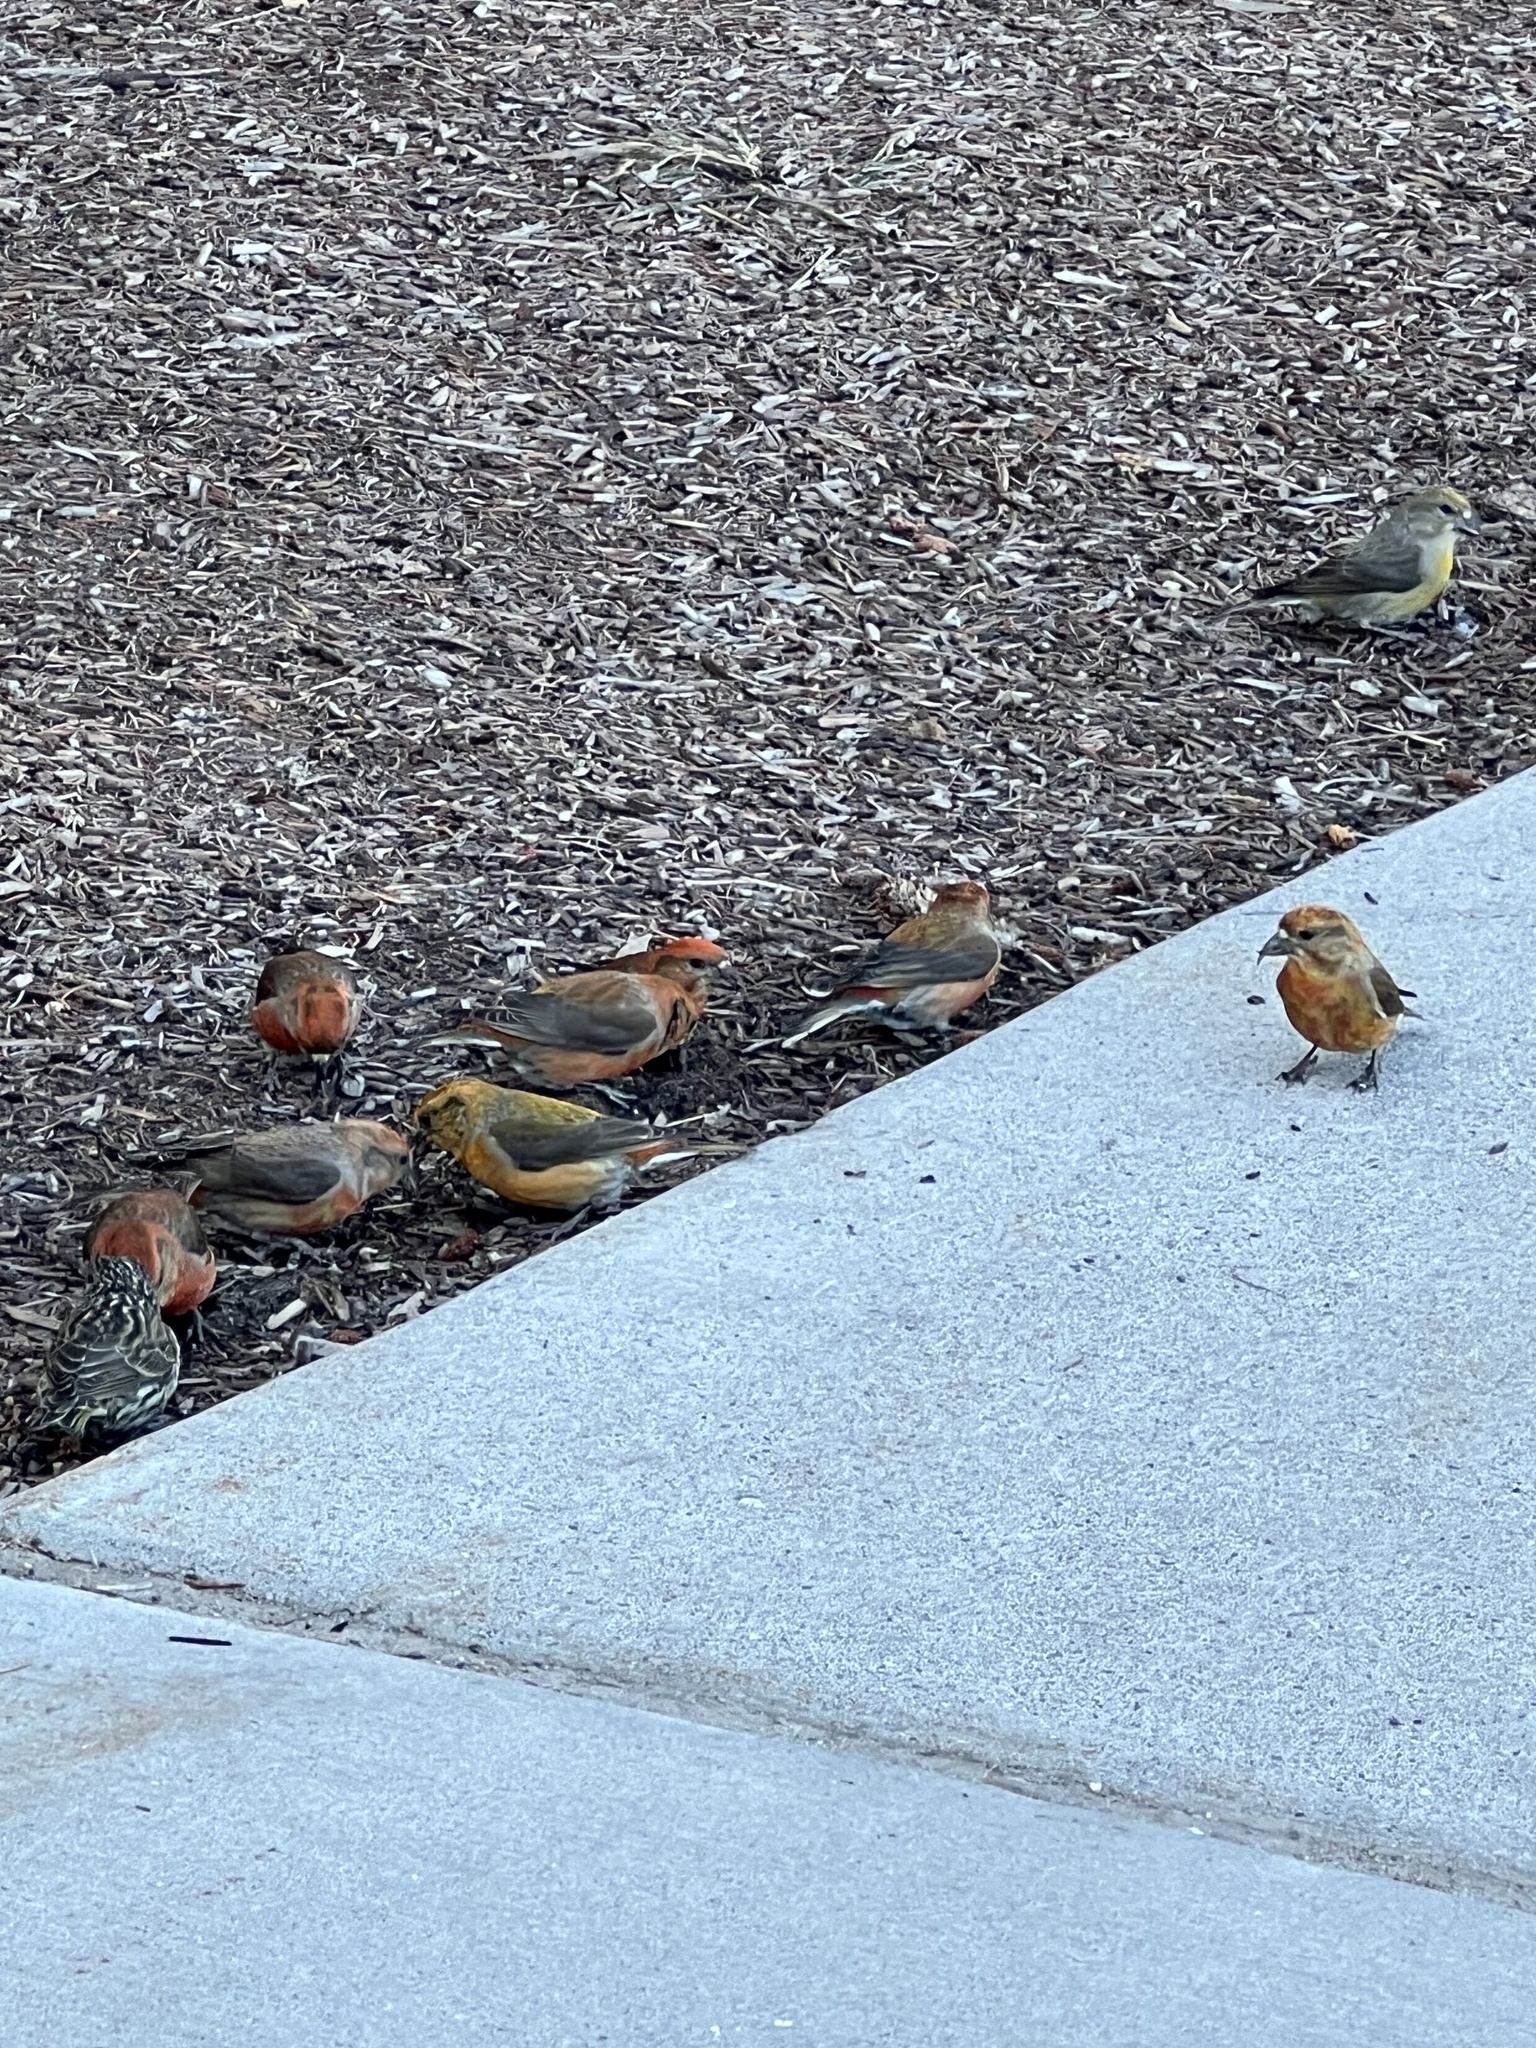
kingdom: Animalia
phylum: Chordata
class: Aves
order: Passeriformes
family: Fringillidae
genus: Loxia
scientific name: Loxia curvirostra
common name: Red crossbill
